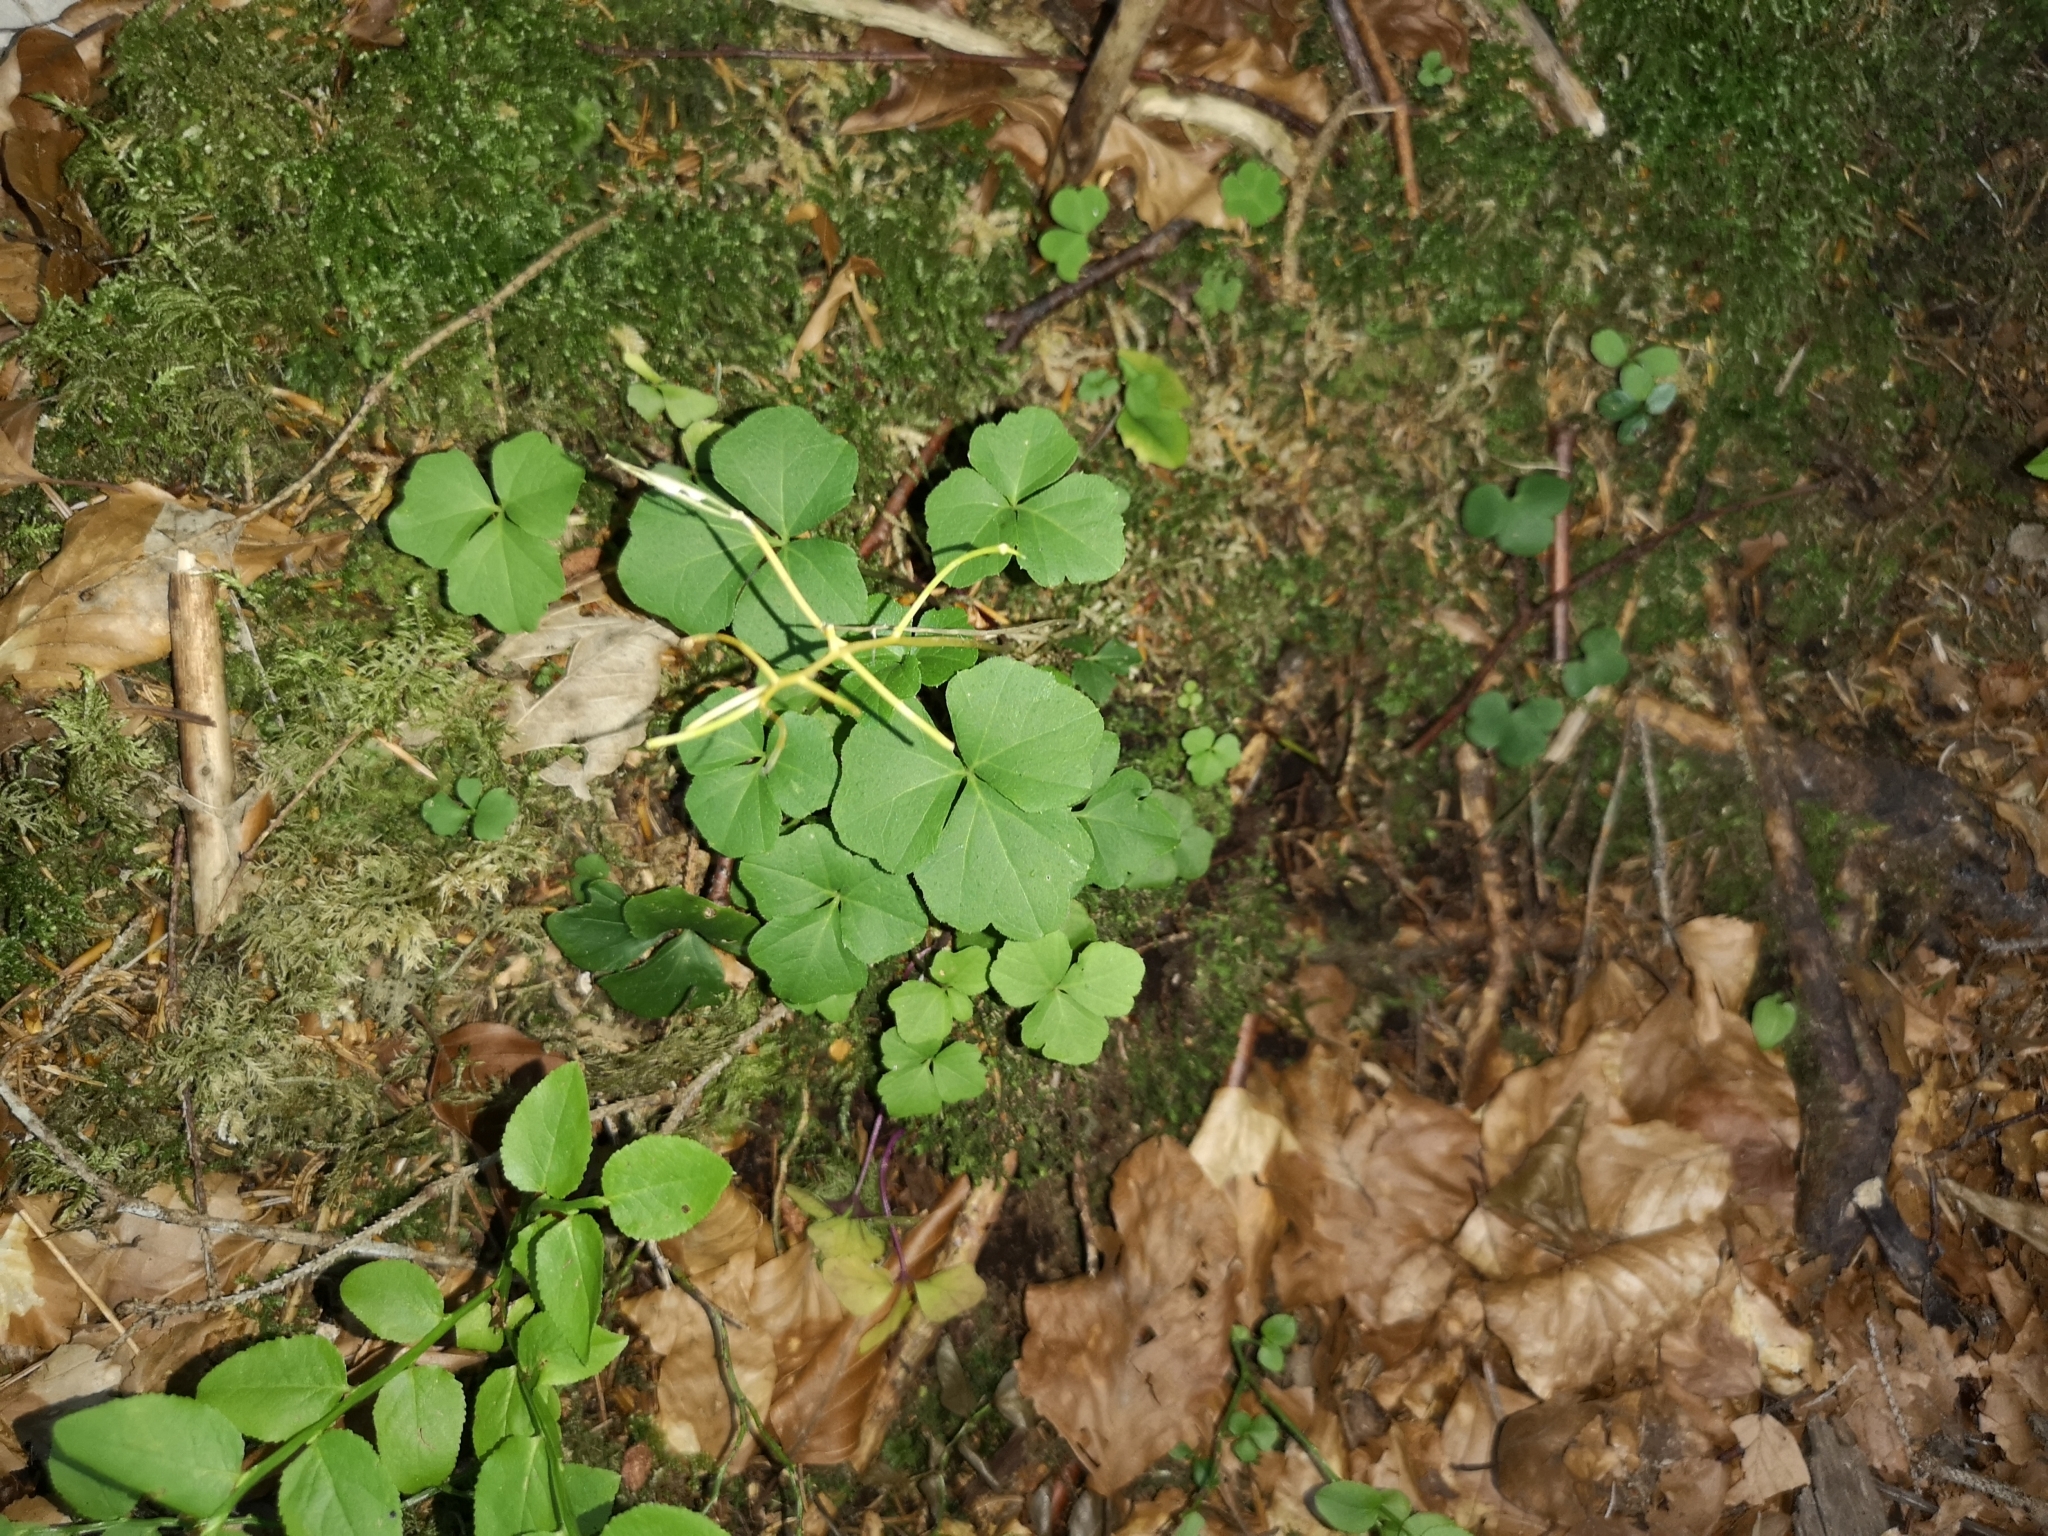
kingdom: Plantae
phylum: Tracheophyta
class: Magnoliopsida
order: Brassicales
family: Brassicaceae
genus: Cardamine
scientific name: Cardamine trifolia
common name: Trefoil cress
